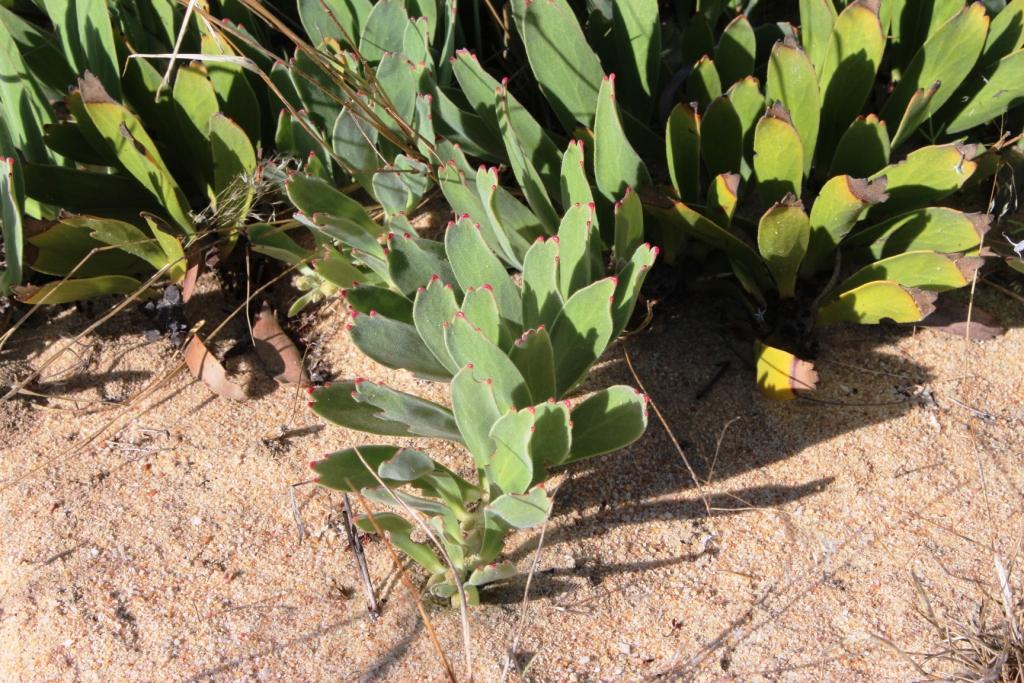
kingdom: Plantae
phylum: Tracheophyta
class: Magnoliopsida
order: Proteales
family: Proteaceae
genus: Leucospermum
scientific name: Leucospermum hypophyllocarpodendron
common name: Snakestem pincushion
